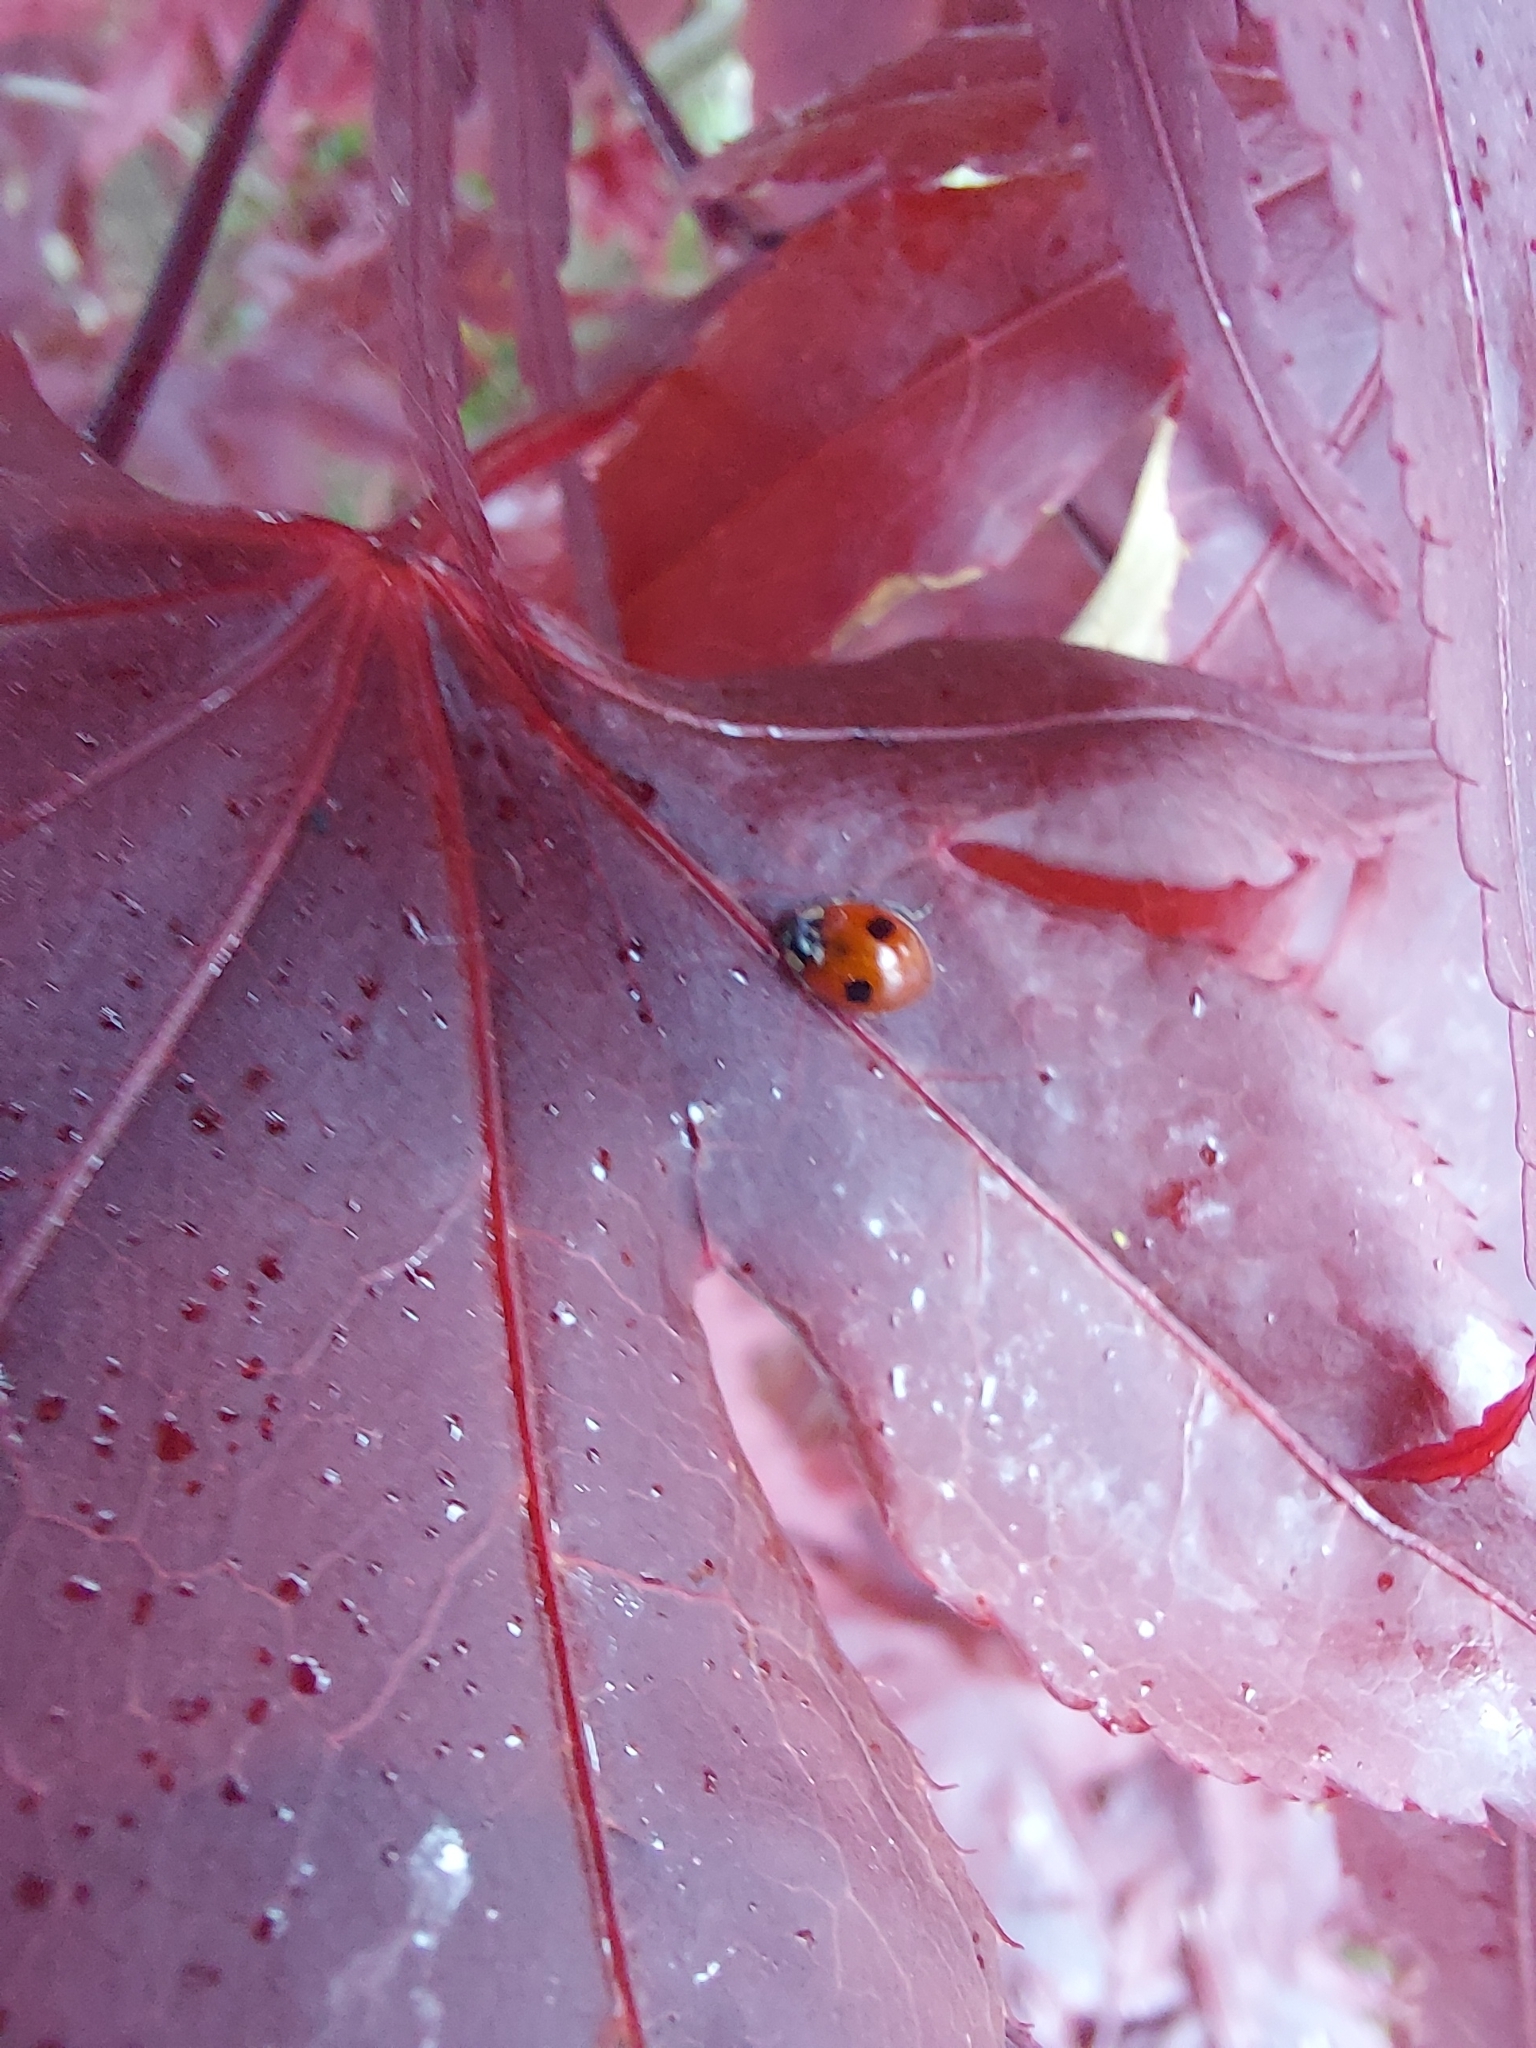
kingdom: Animalia
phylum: Arthropoda
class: Insecta
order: Coleoptera
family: Coccinellidae
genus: Adalia
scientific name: Adalia bipunctata
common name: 2-spot ladybird
